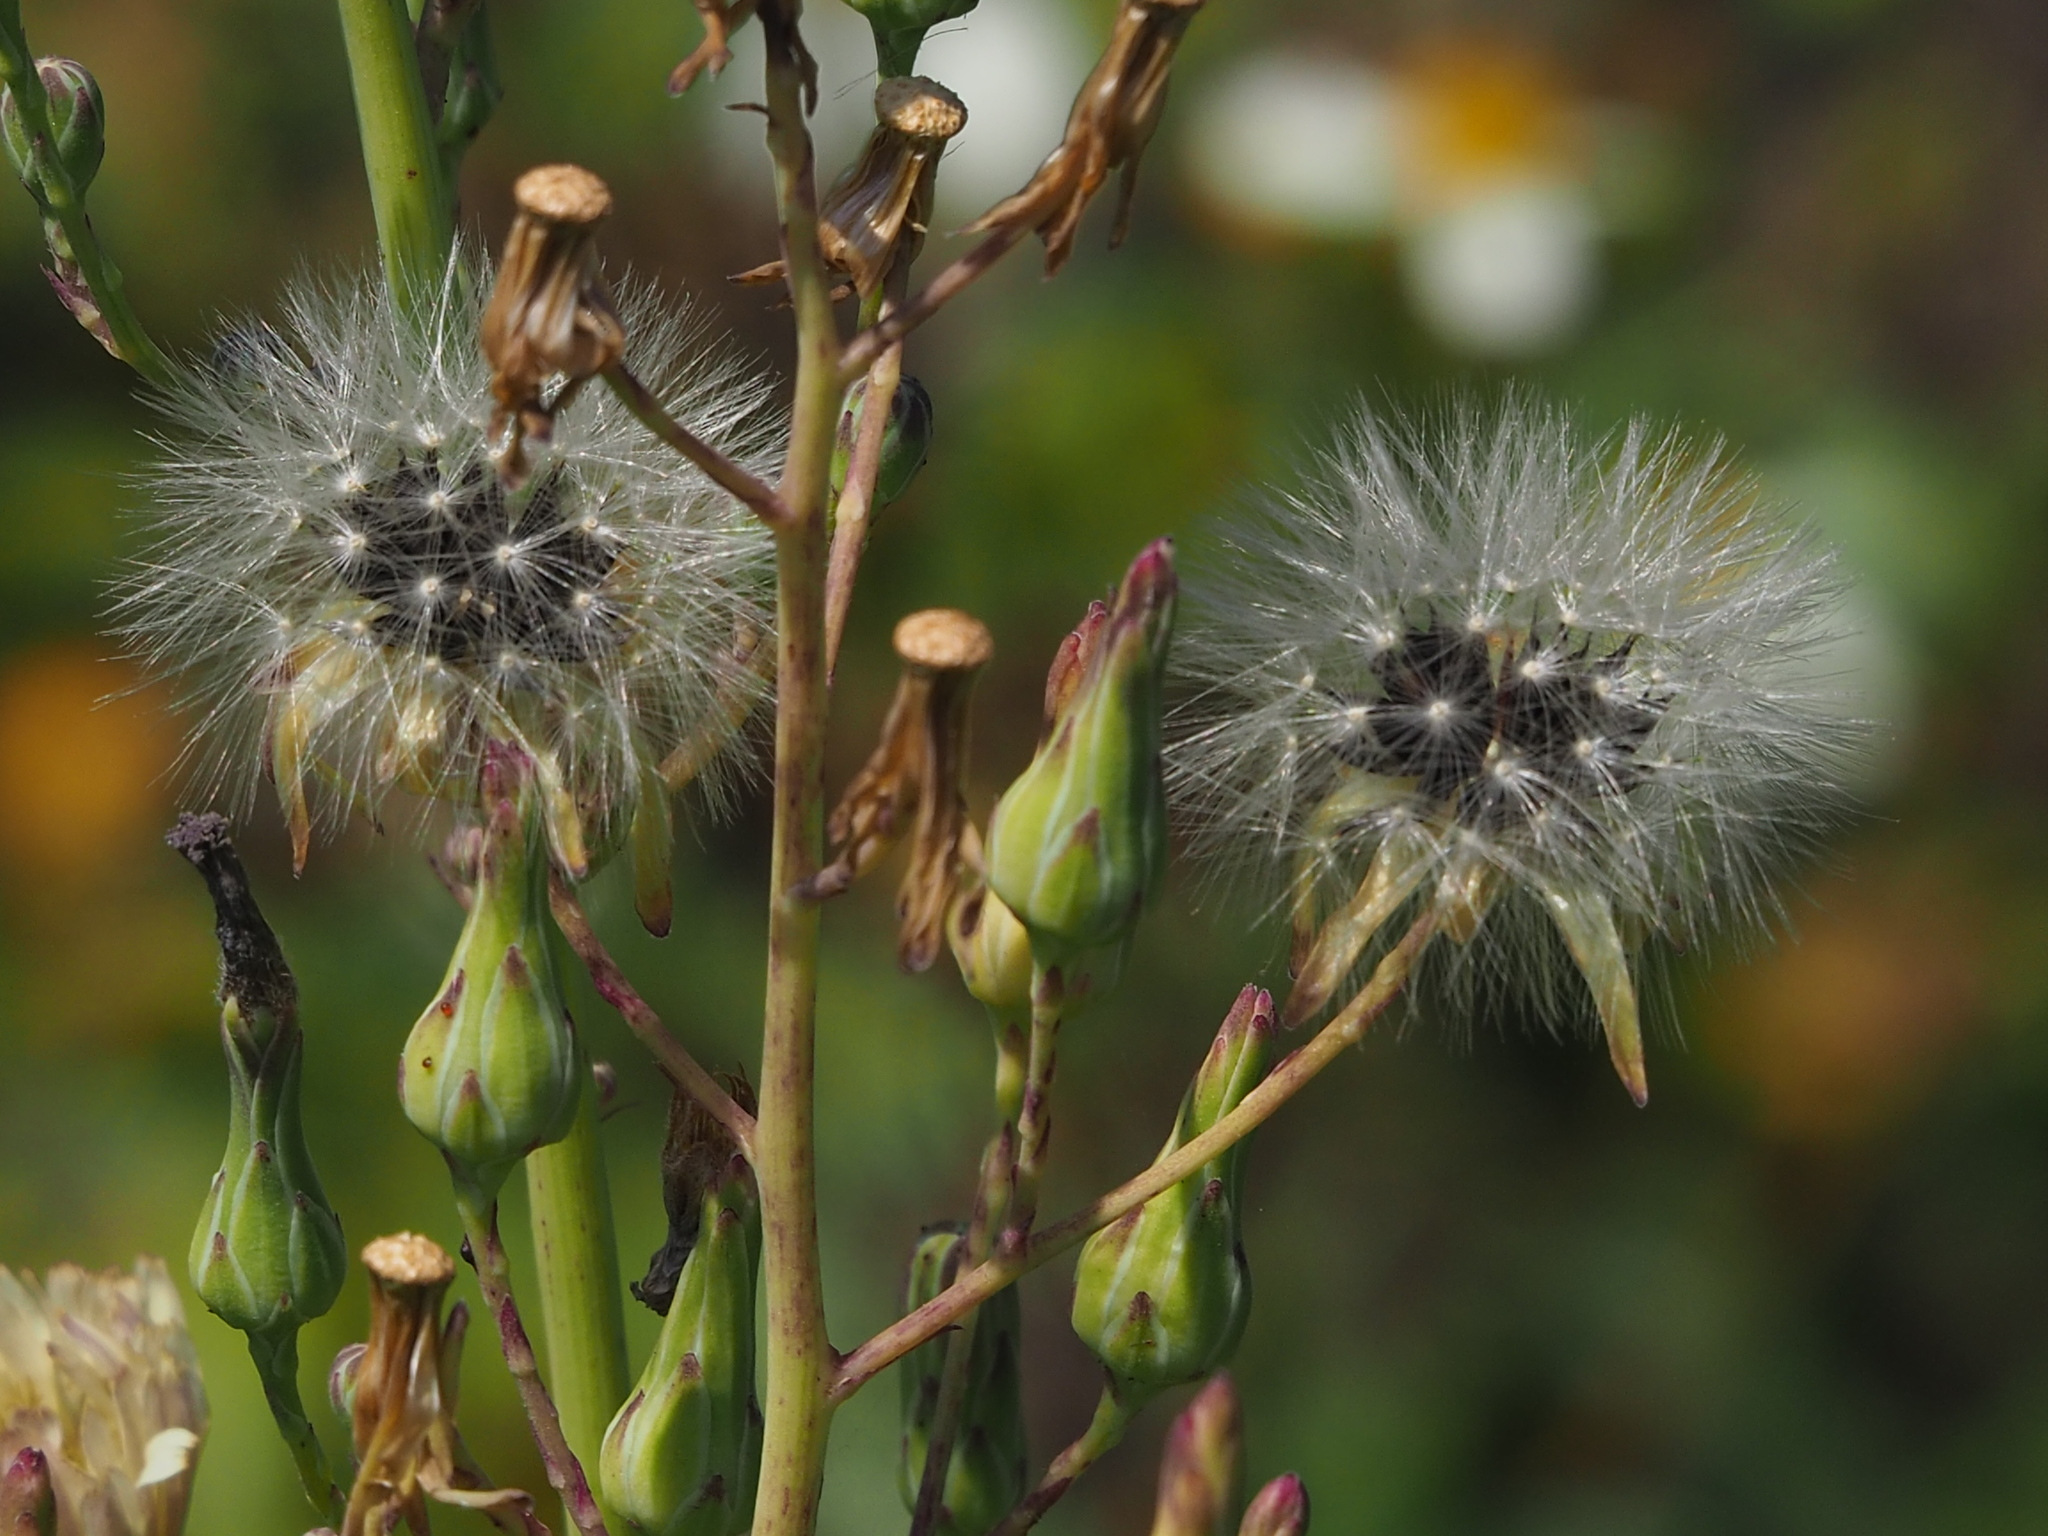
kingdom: Plantae
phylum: Tracheophyta
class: Magnoliopsida
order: Asterales
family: Asteraceae
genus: Lactuca
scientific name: Lactuca indica
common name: Wild lettuce
